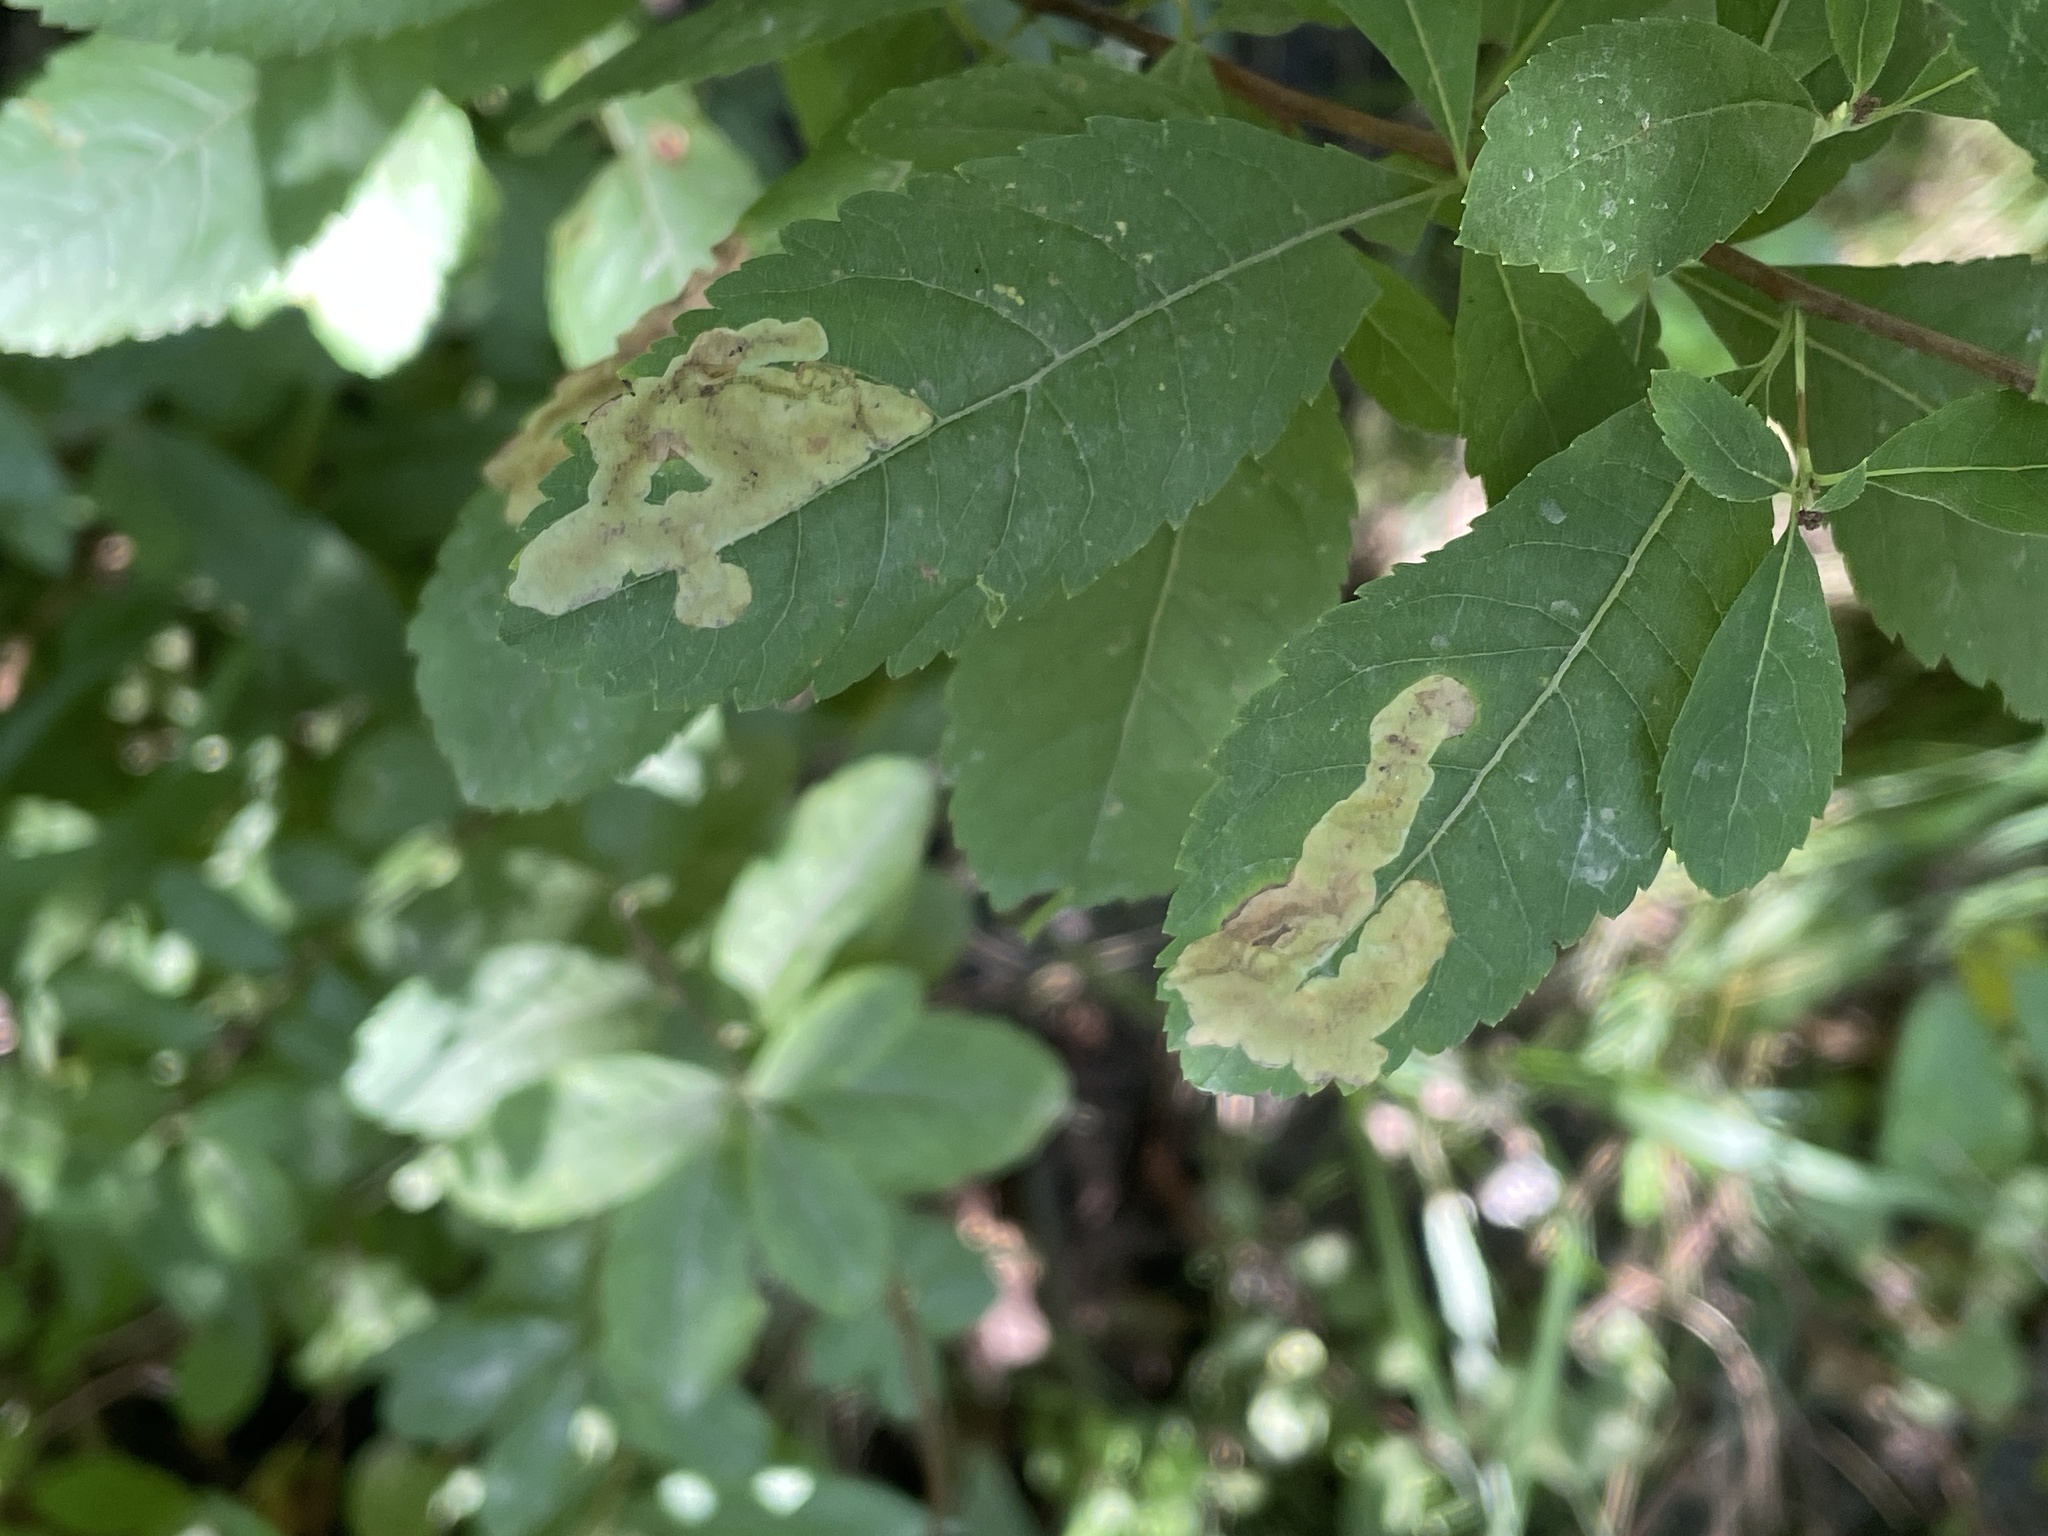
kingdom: Animalia
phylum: Arthropoda
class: Insecta
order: Diptera
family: Agromyzidae
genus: Agromyza
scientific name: Agromyza valdorensis
